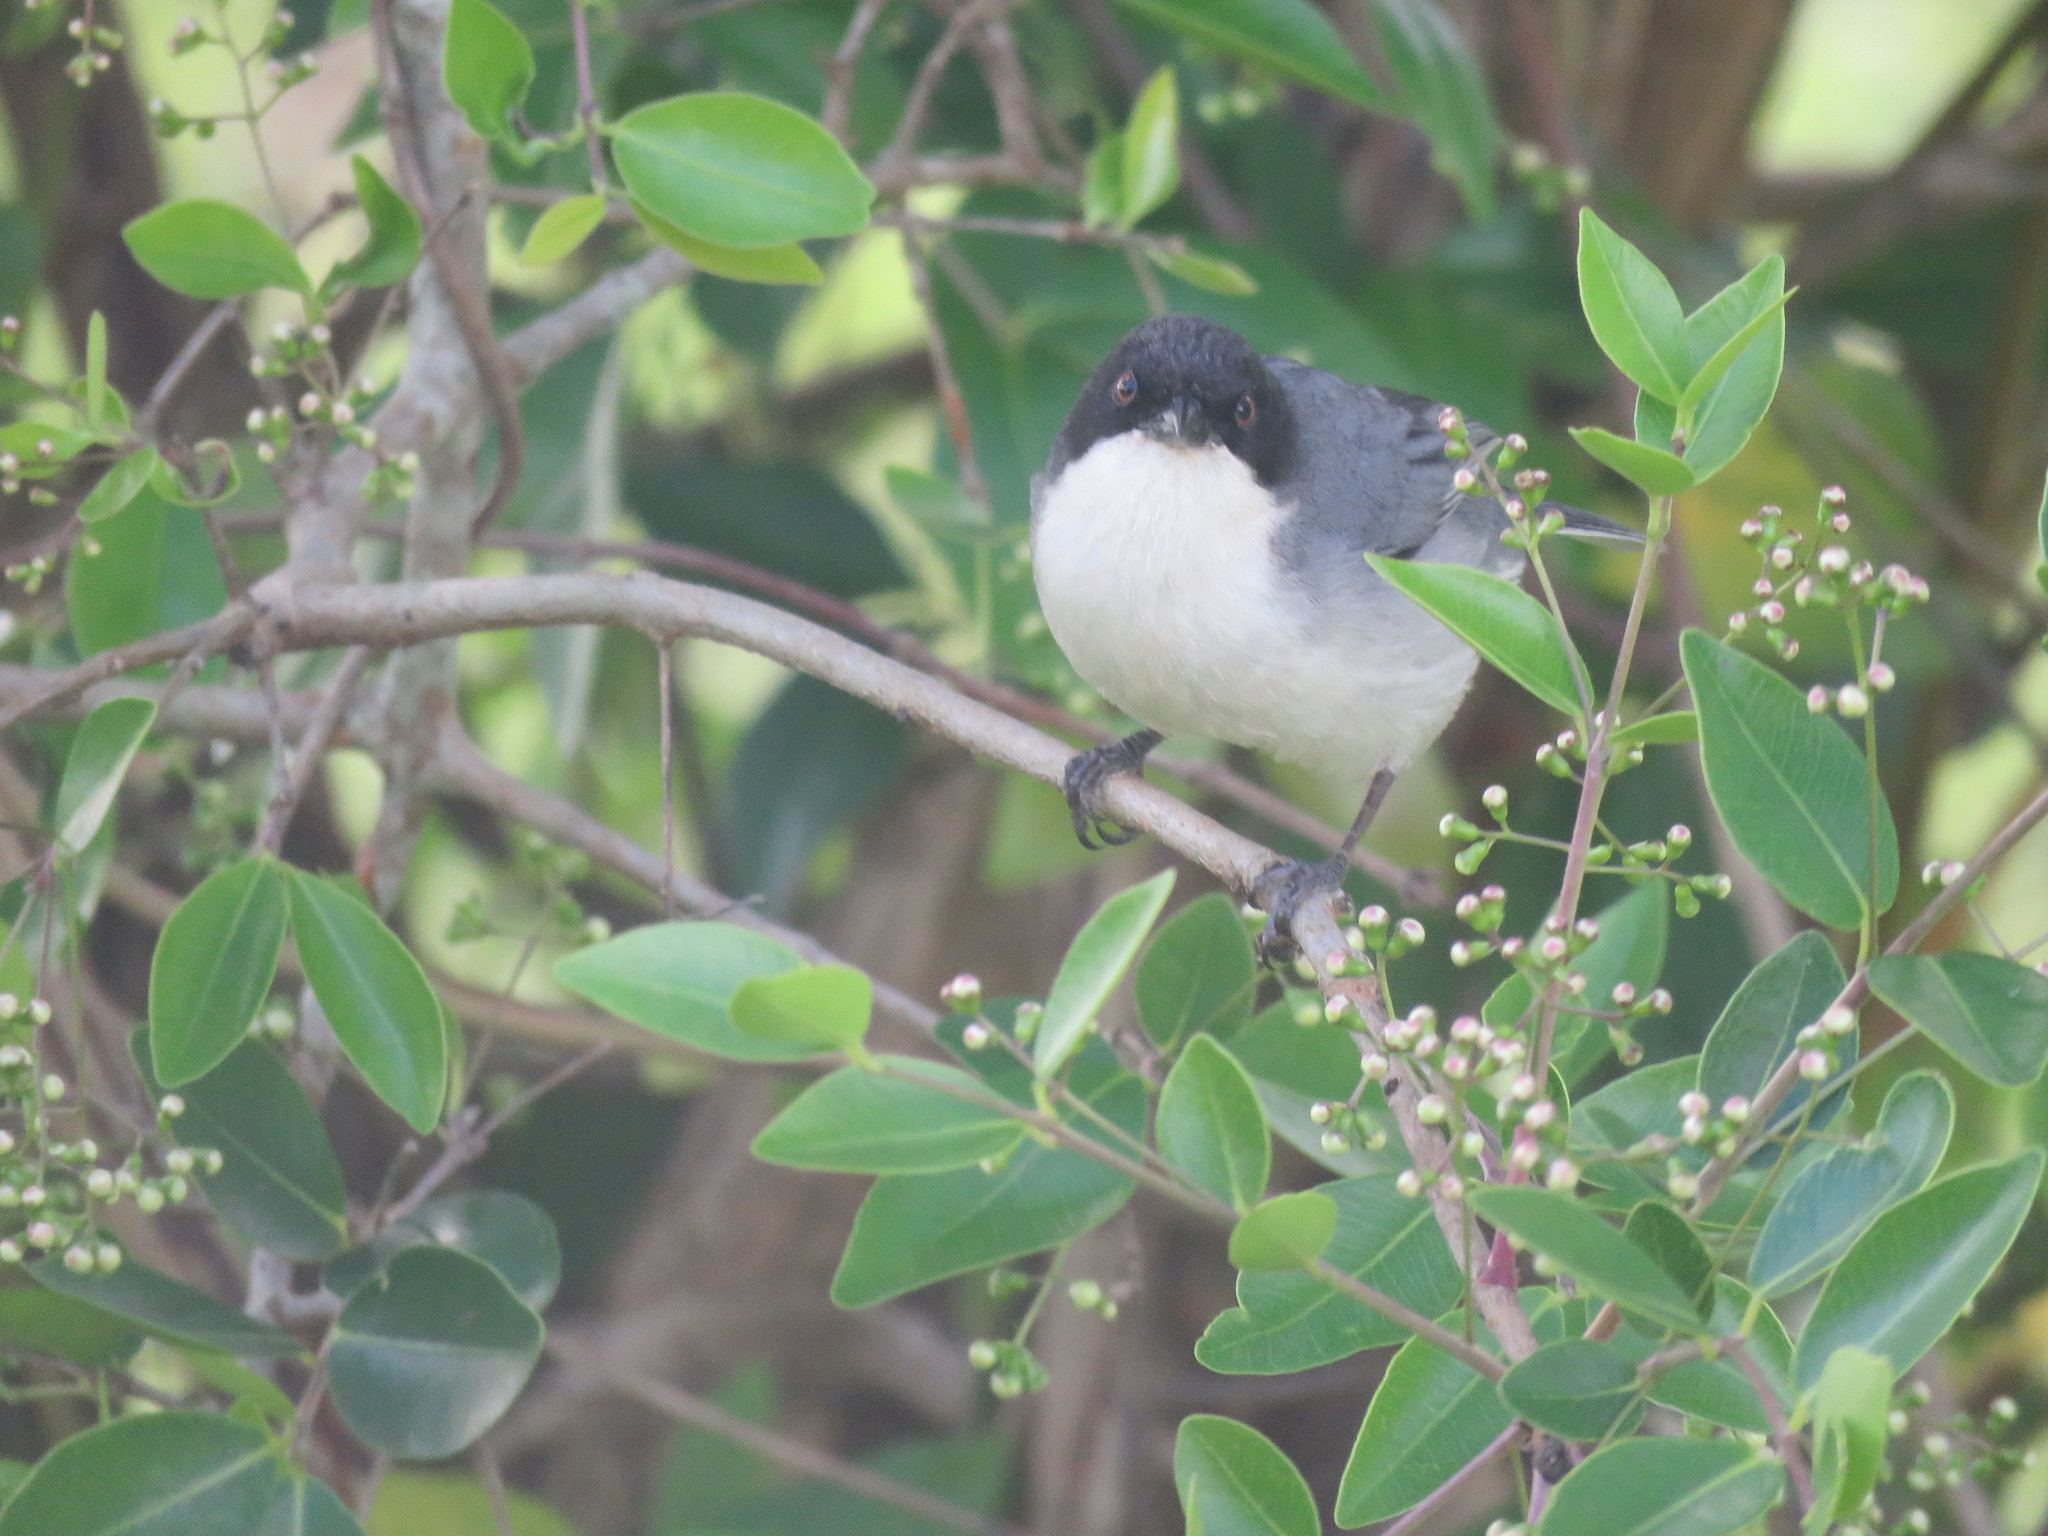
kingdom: Animalia
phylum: Chordata
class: Aves
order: Passeriformes
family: Thraupidae
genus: Microspingus
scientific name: Microspingus melanoleucus
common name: Black-capped warbling-finch
